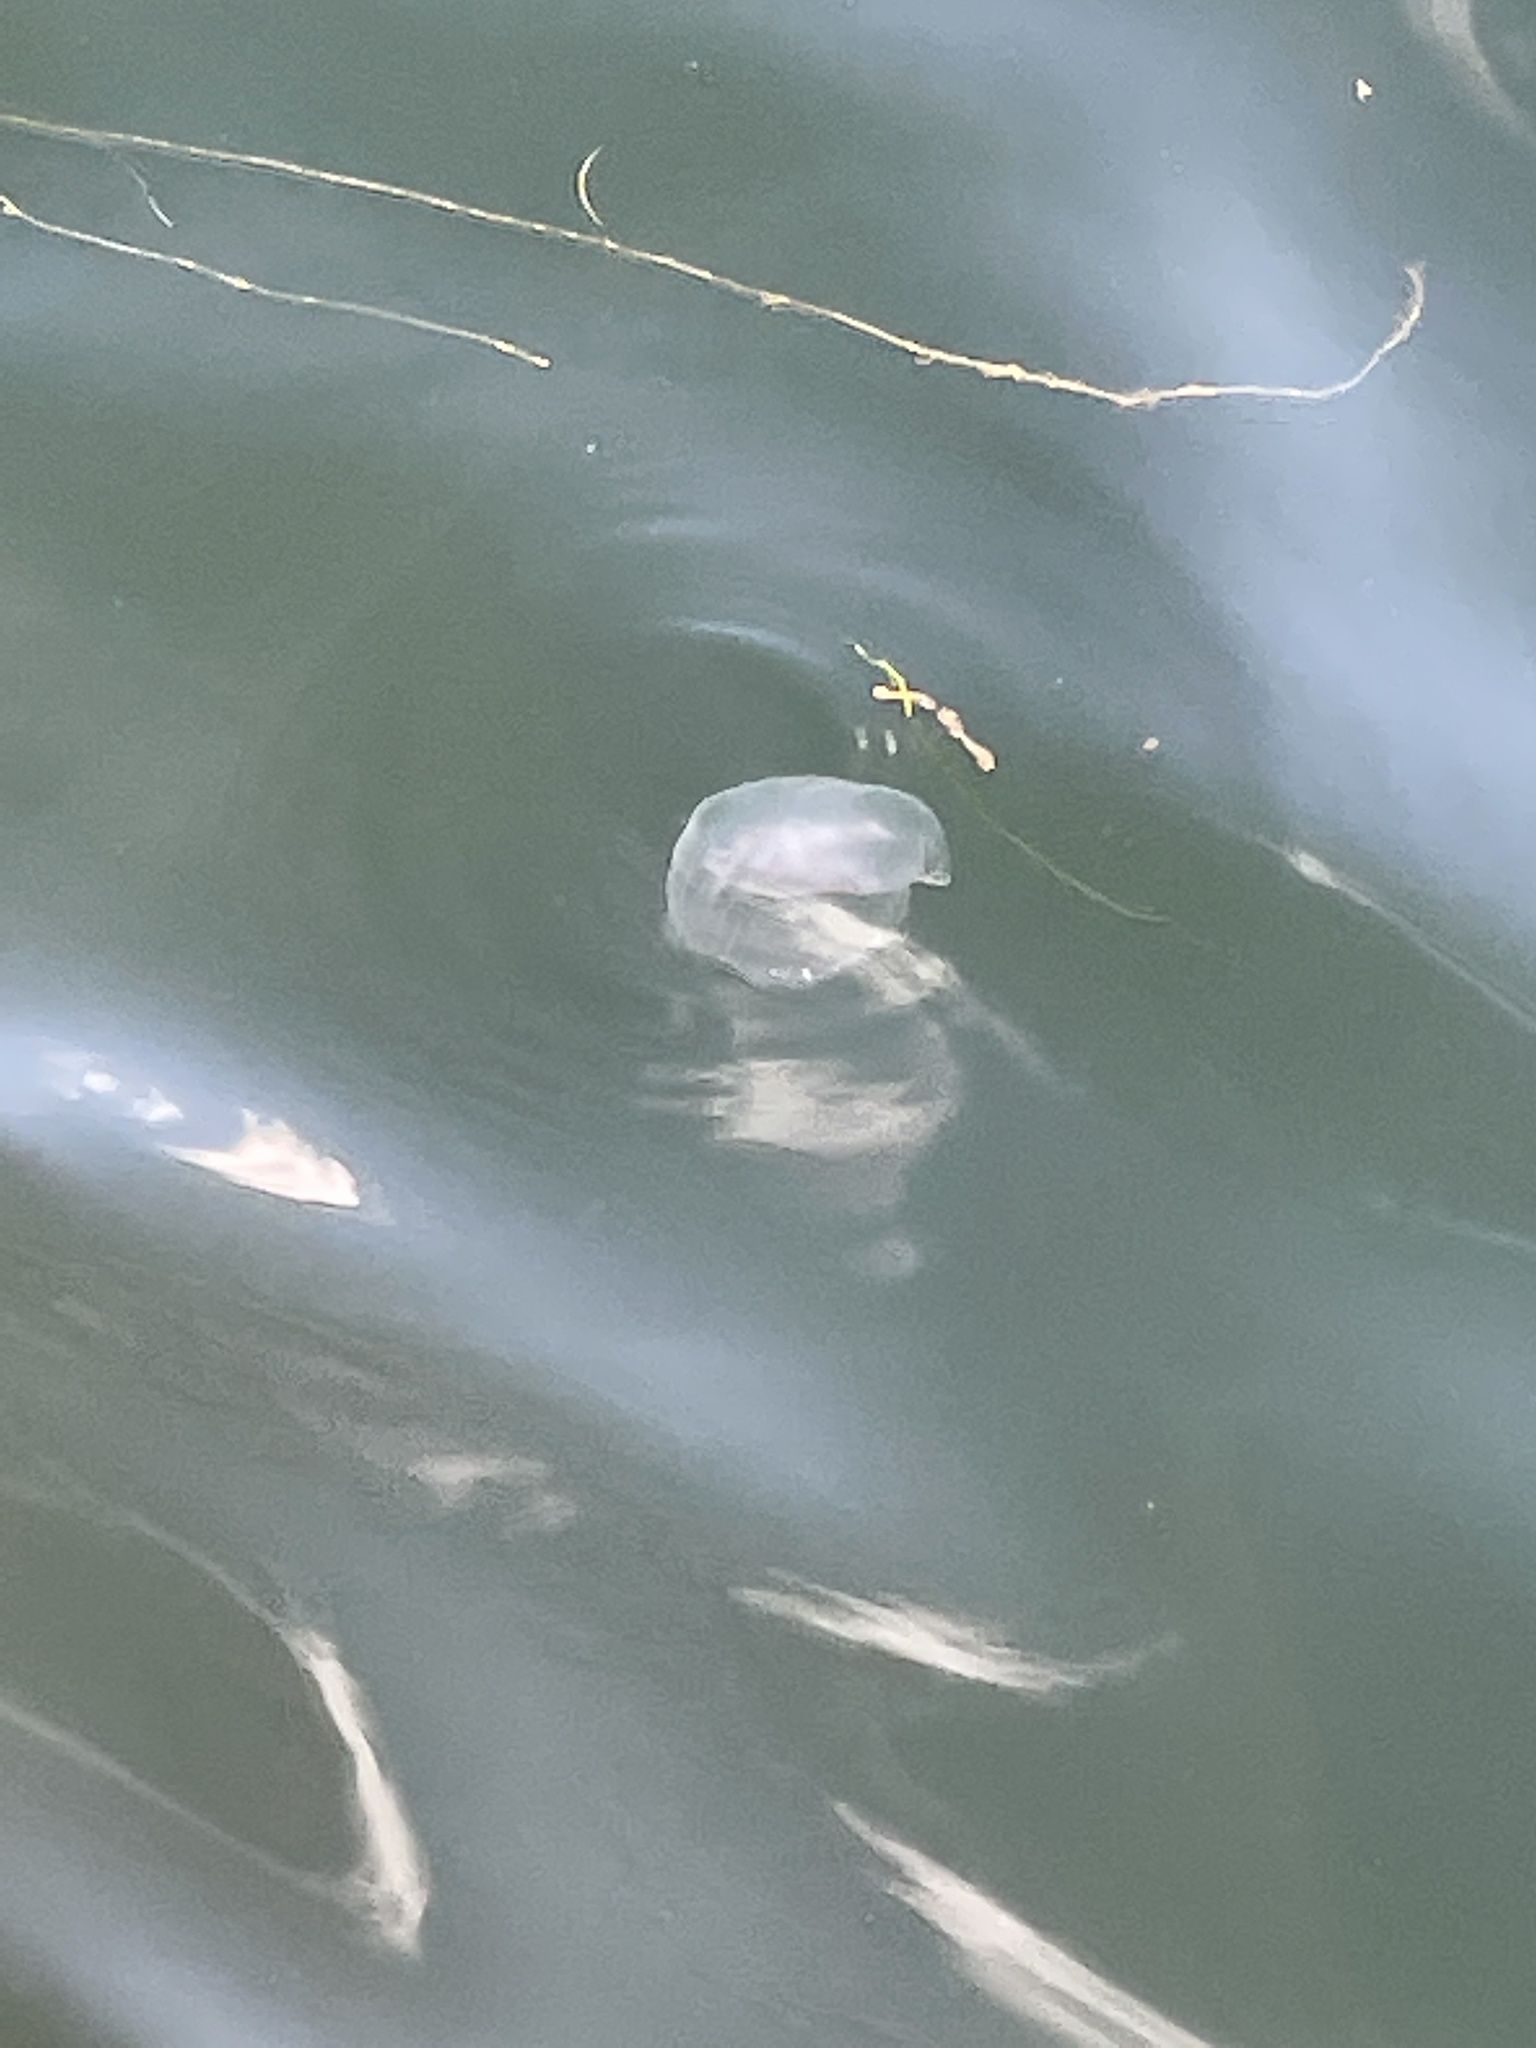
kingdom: Animalia
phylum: Cnidaria
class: Scyphozoa
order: Semaeostomeae
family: Ulmaridae
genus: Aurelia
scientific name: Aurelia aurita
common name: Moon jellyfish
